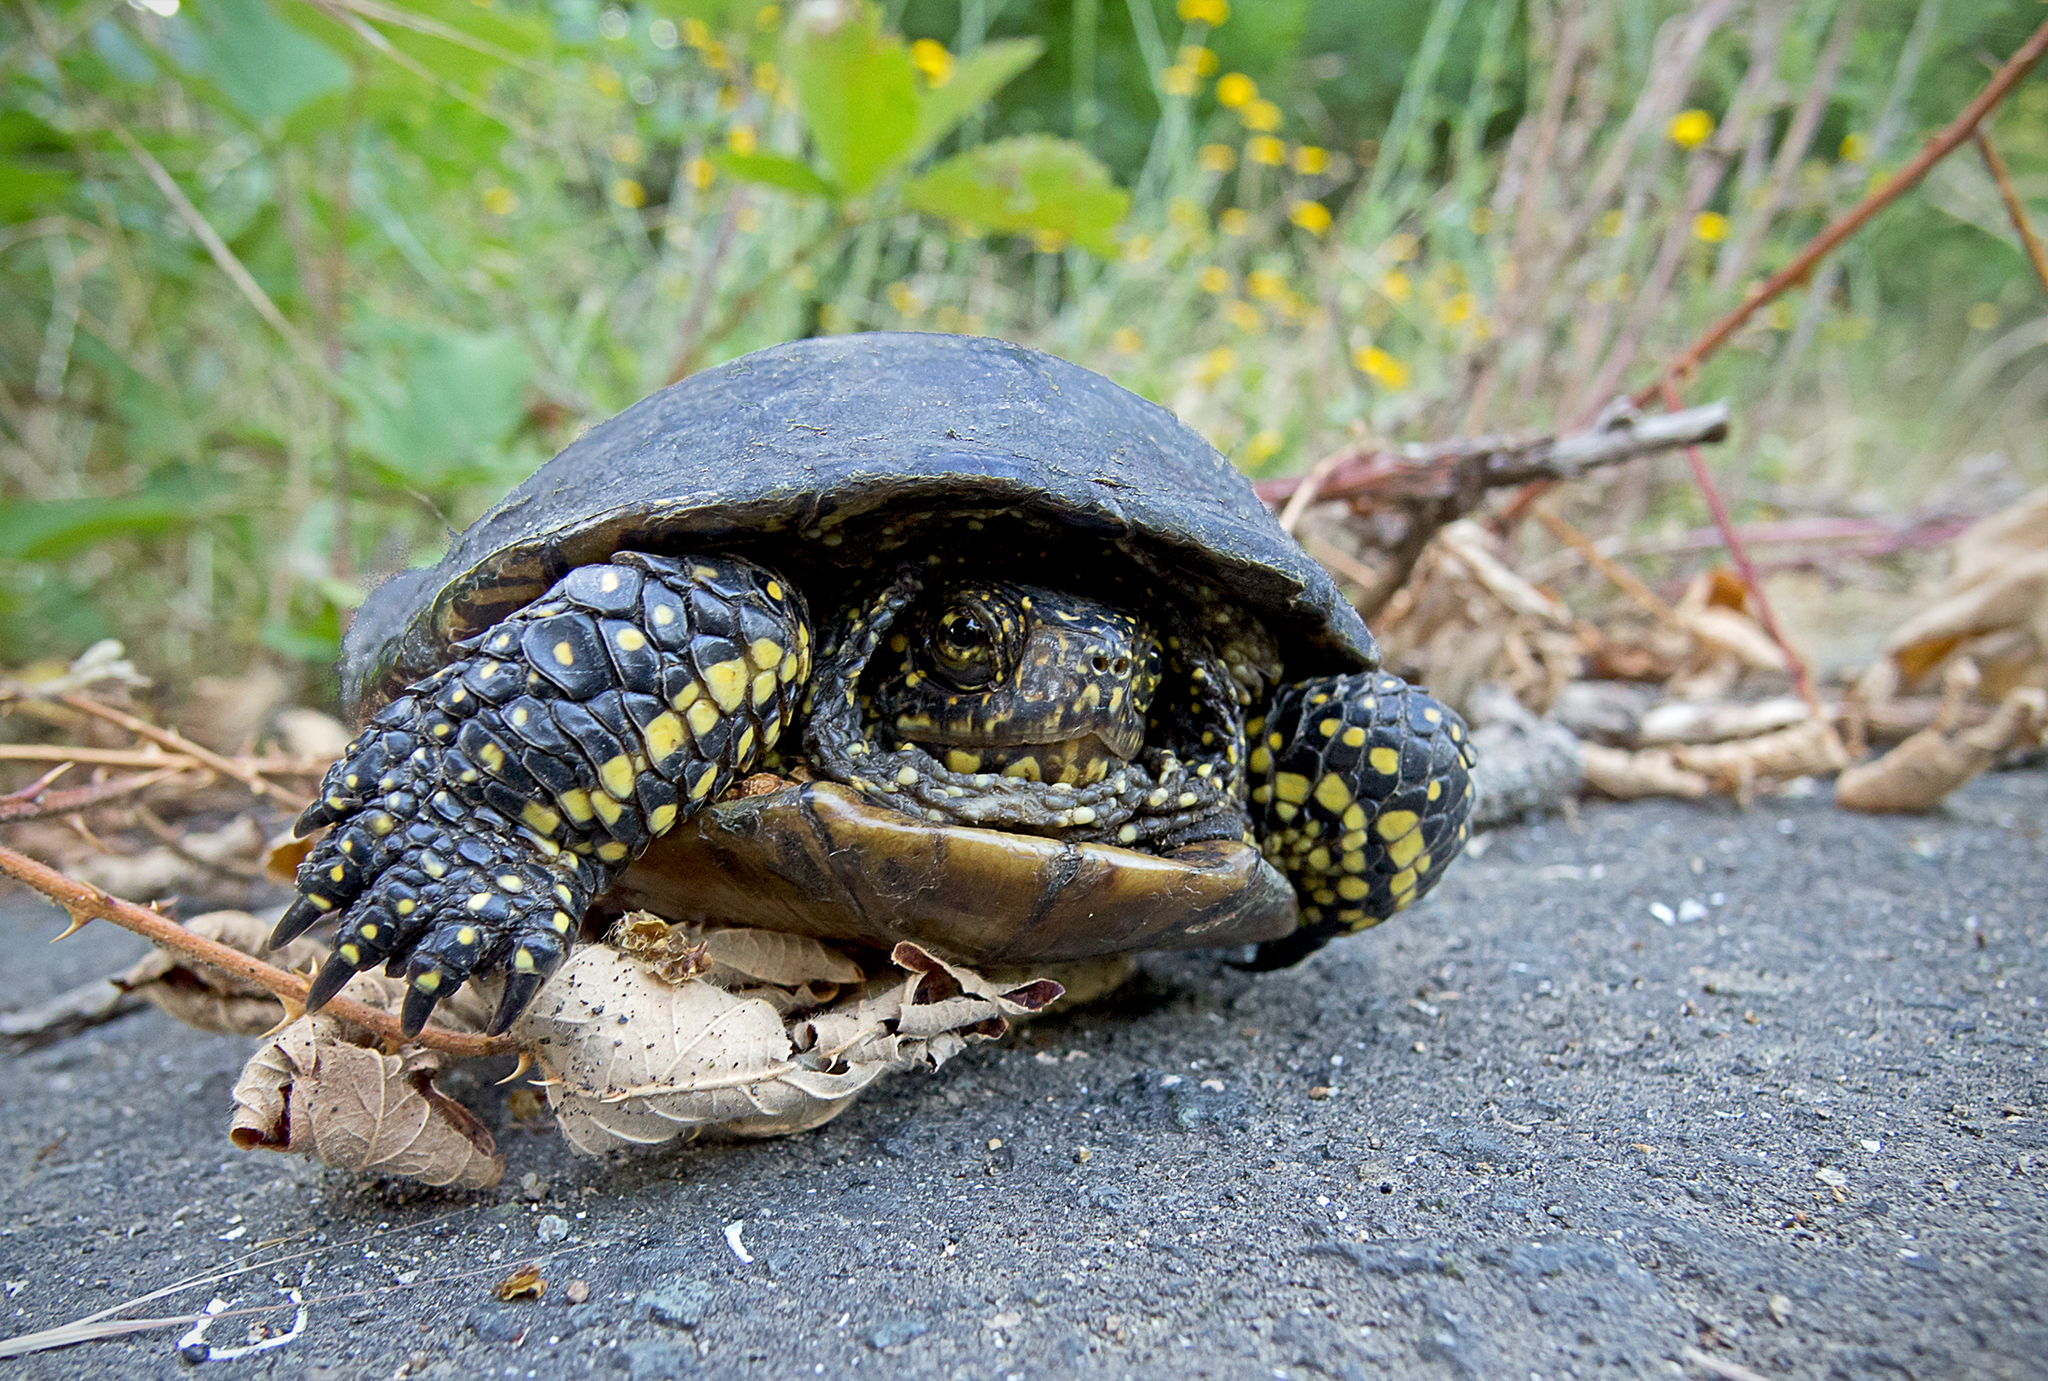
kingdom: Animalia
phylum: Chordata
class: Testudines
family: Emydidae
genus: Emys
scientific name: Emys orbicularis
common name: European pond turtle
